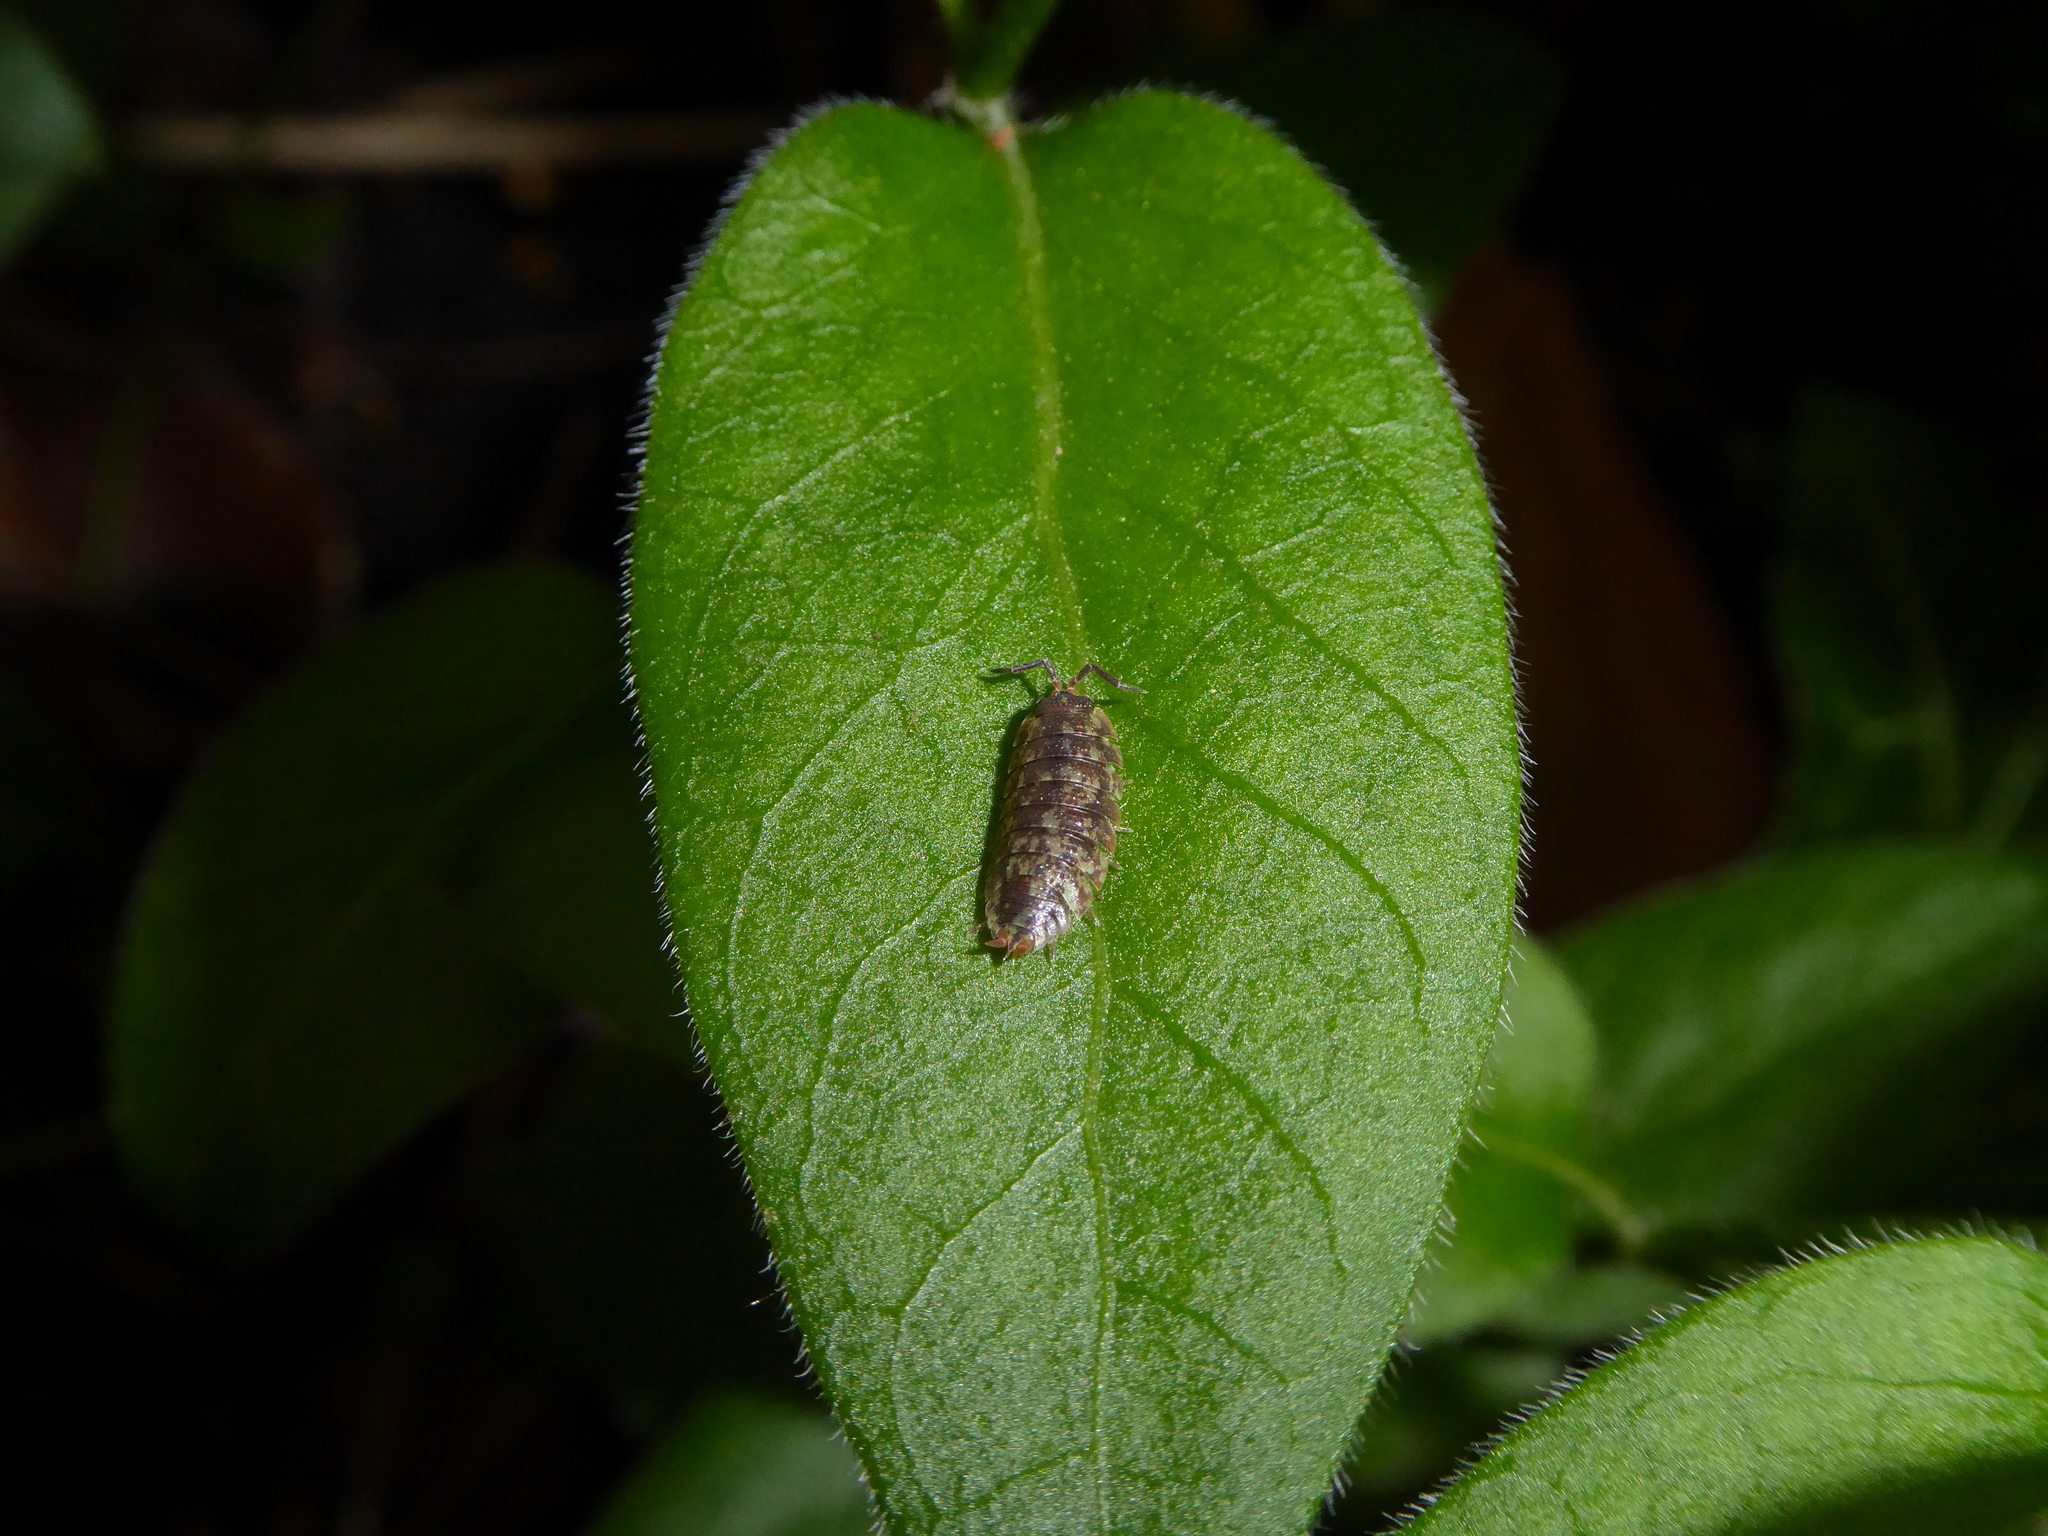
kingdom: Animalia
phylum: Arthropoda
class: Malacostraca
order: Isopoda
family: Porcellionidae
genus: Porcellio
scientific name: Porcellio scaber
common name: Common rough woodlouse
